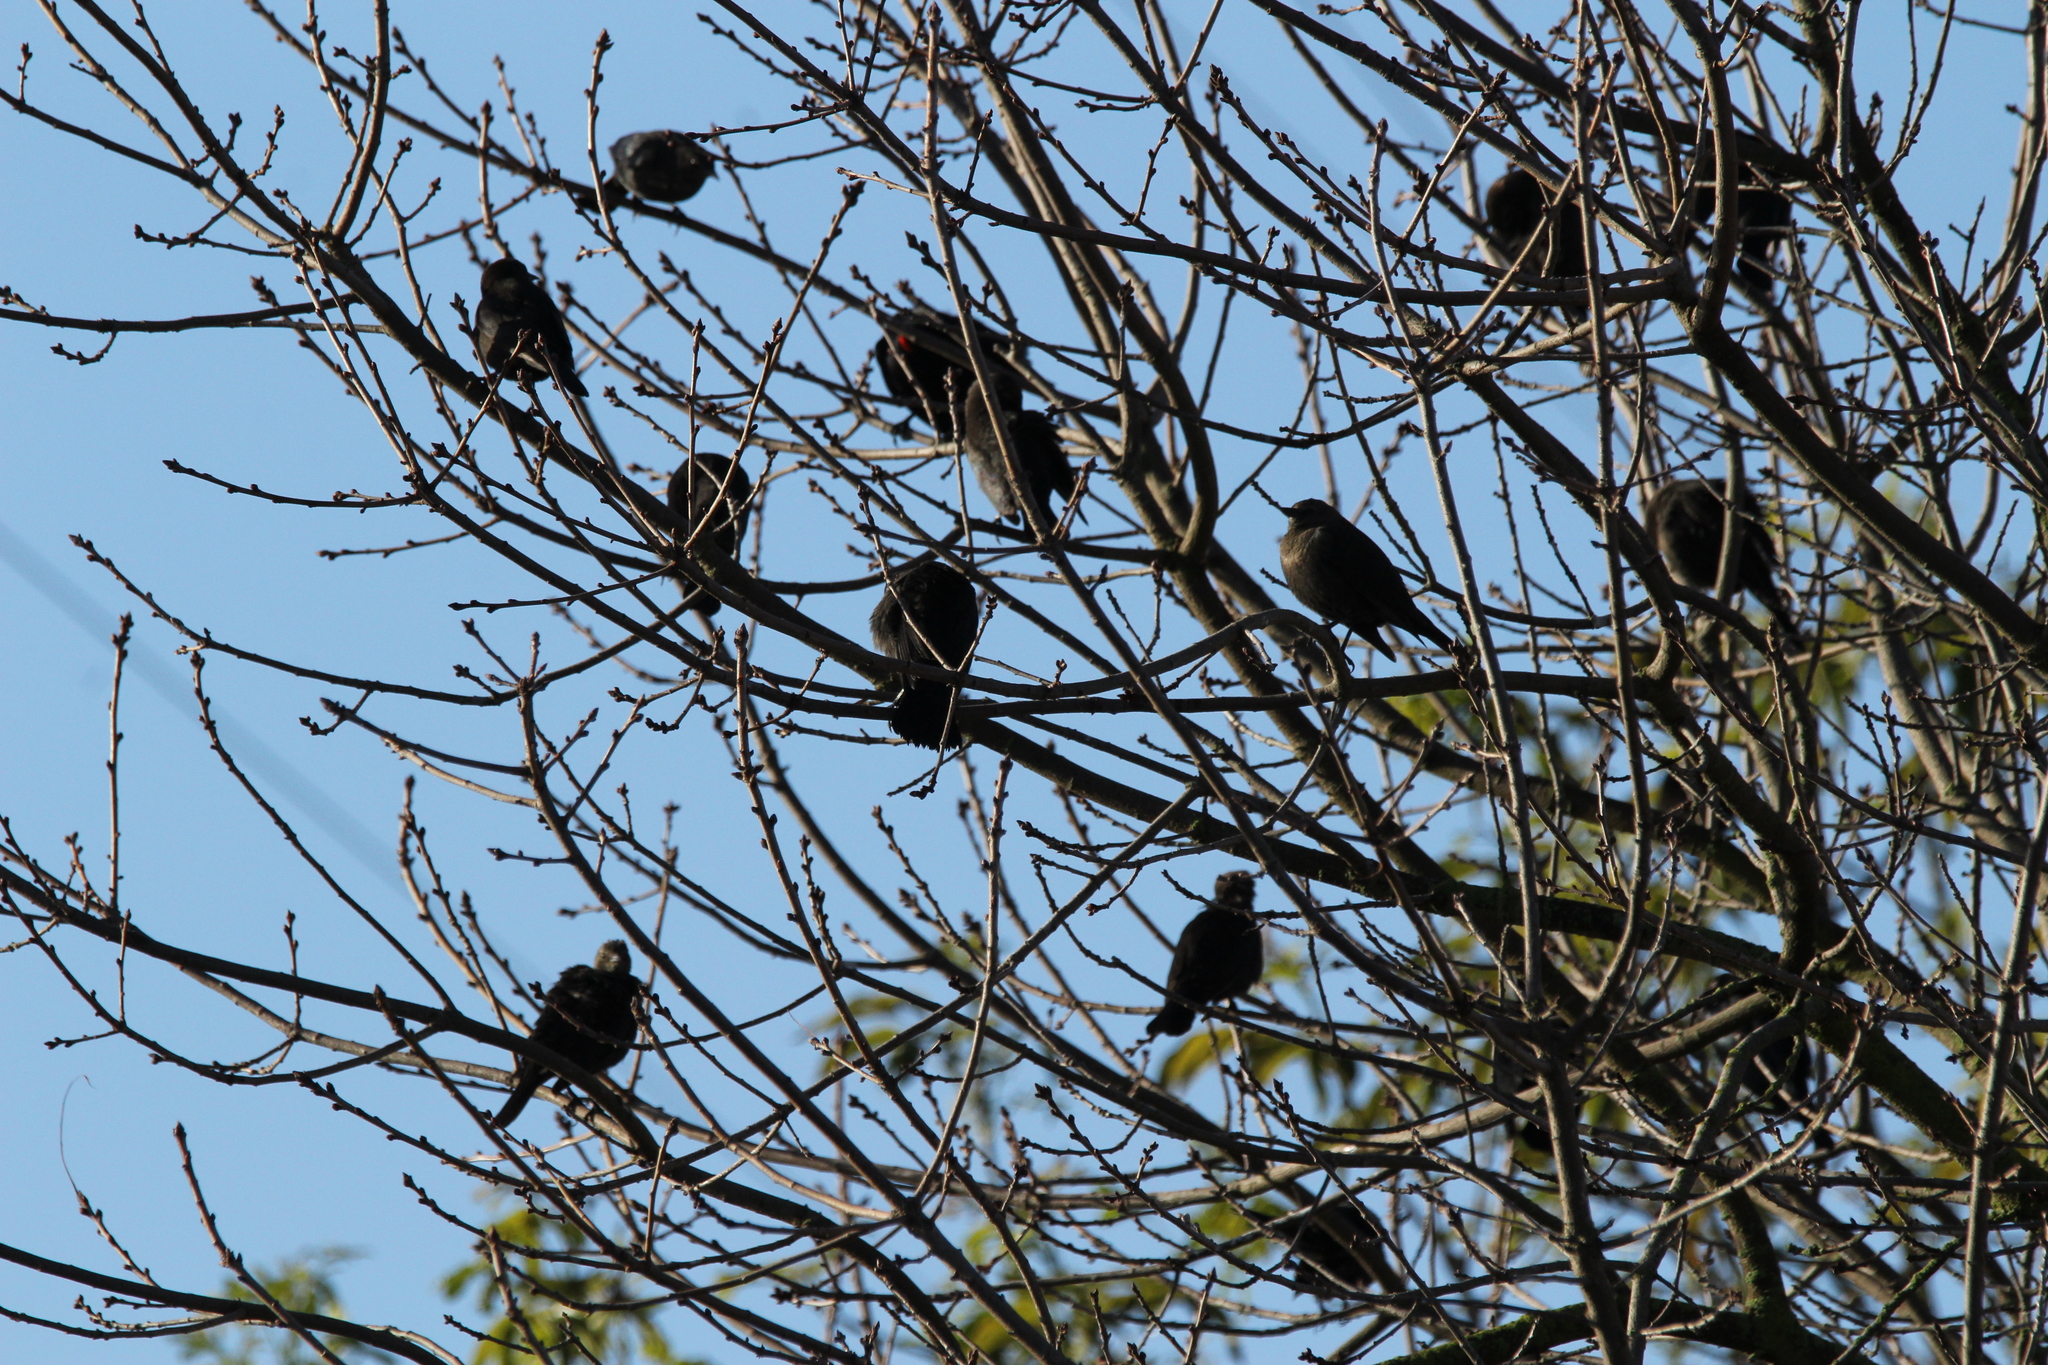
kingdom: Animalia
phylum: Chordata
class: Aves
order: Passeriformes
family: Icteridae
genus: Agelaius
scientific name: Agelaius phoeniceus
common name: Red-winged blackbird
